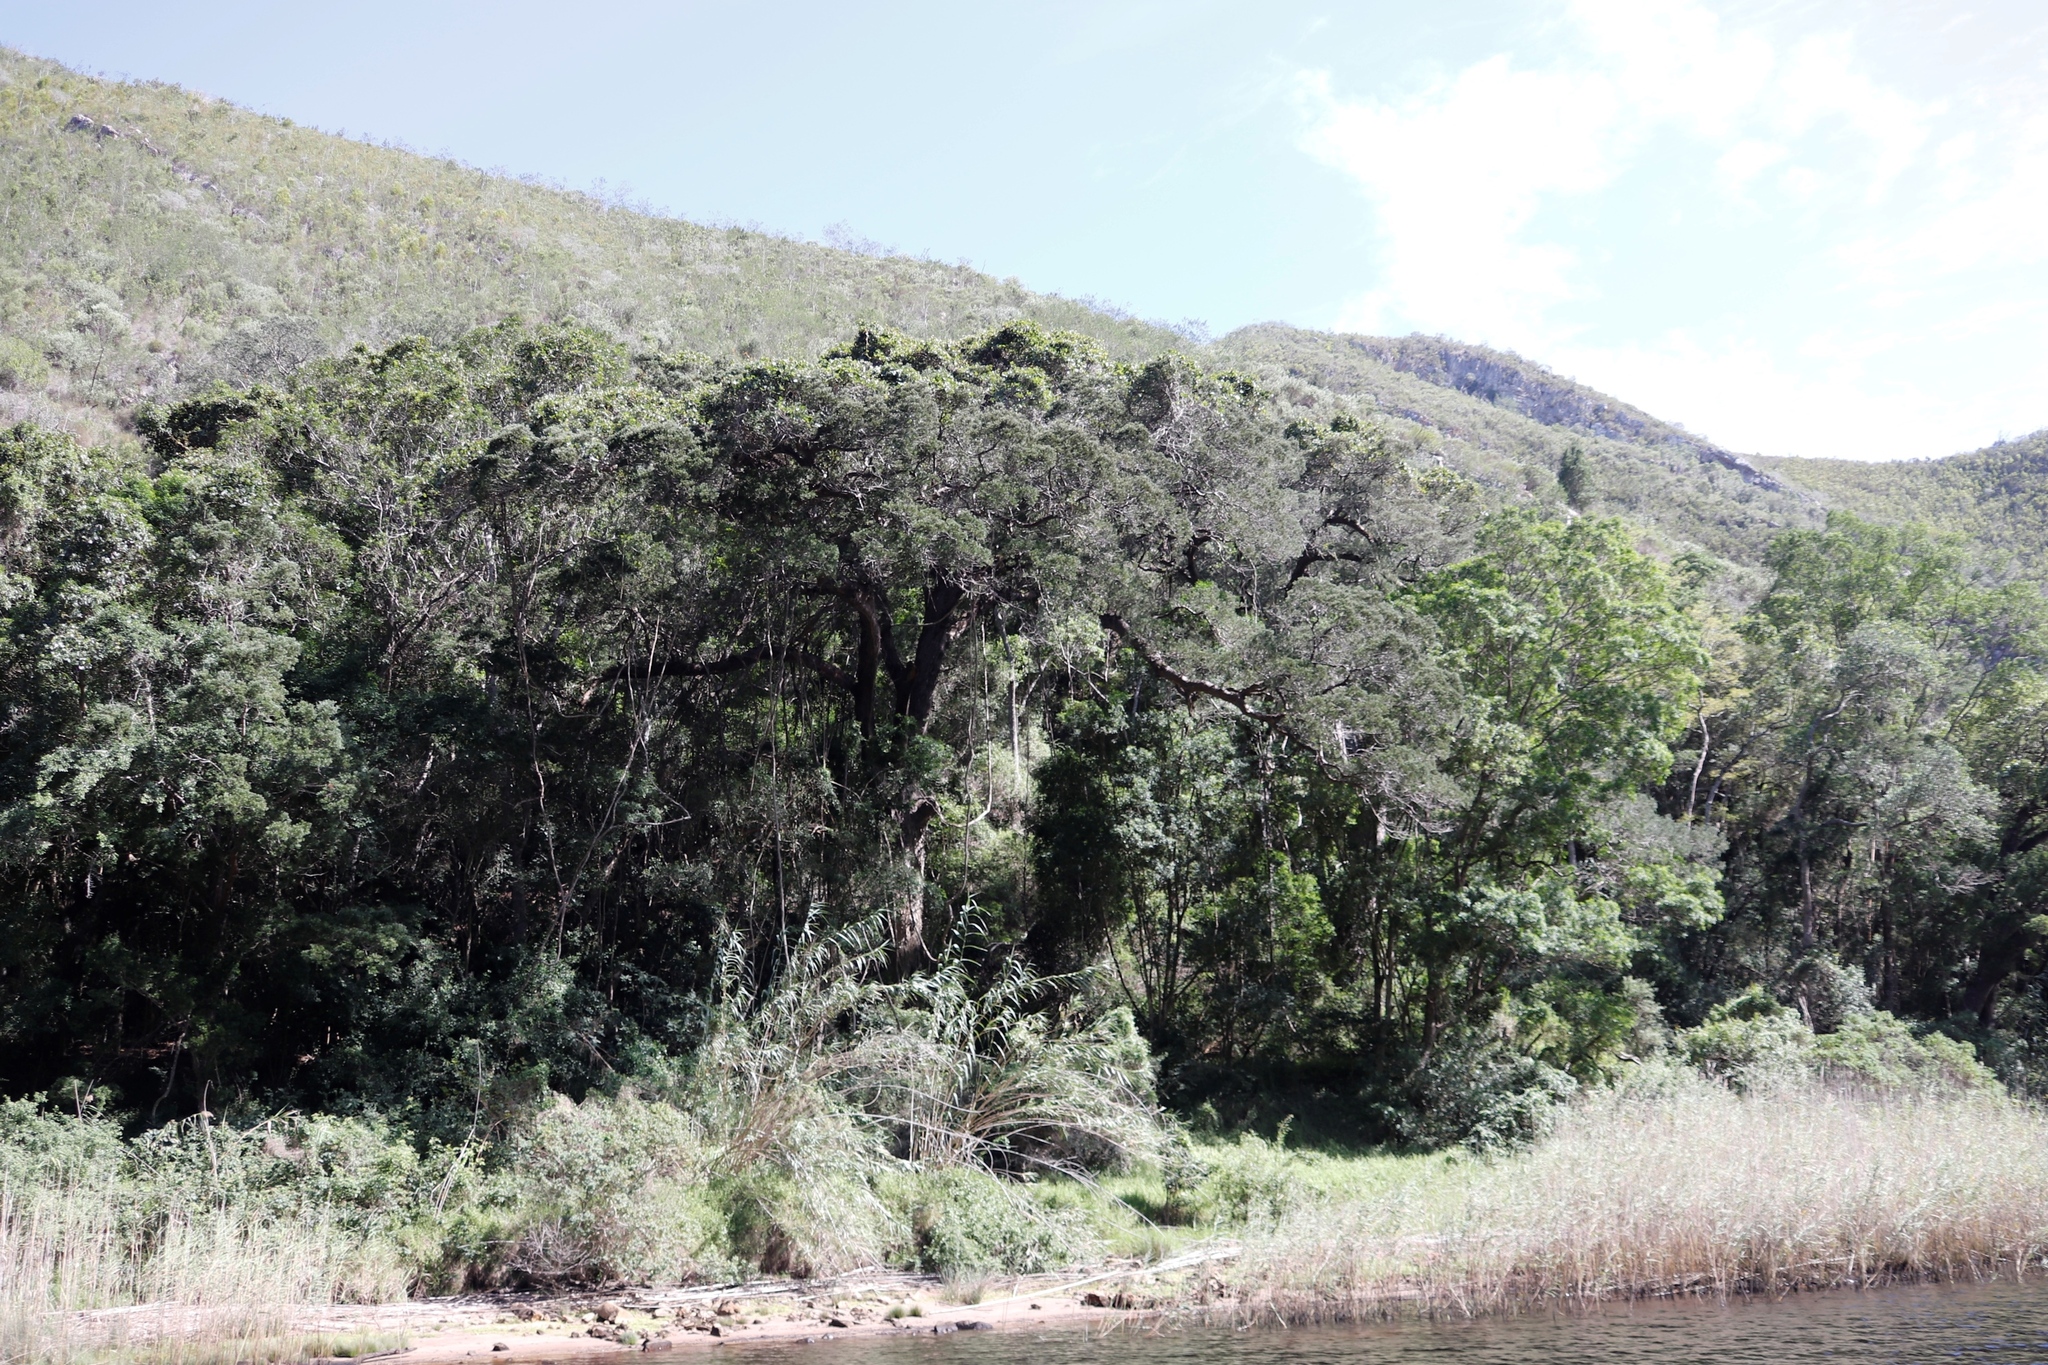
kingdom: Plantae
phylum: Tracheophyta
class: Magnoliopsida
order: Vitales
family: Vitaceae
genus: Rhoicissus
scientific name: Rhoicissus tomentosa
